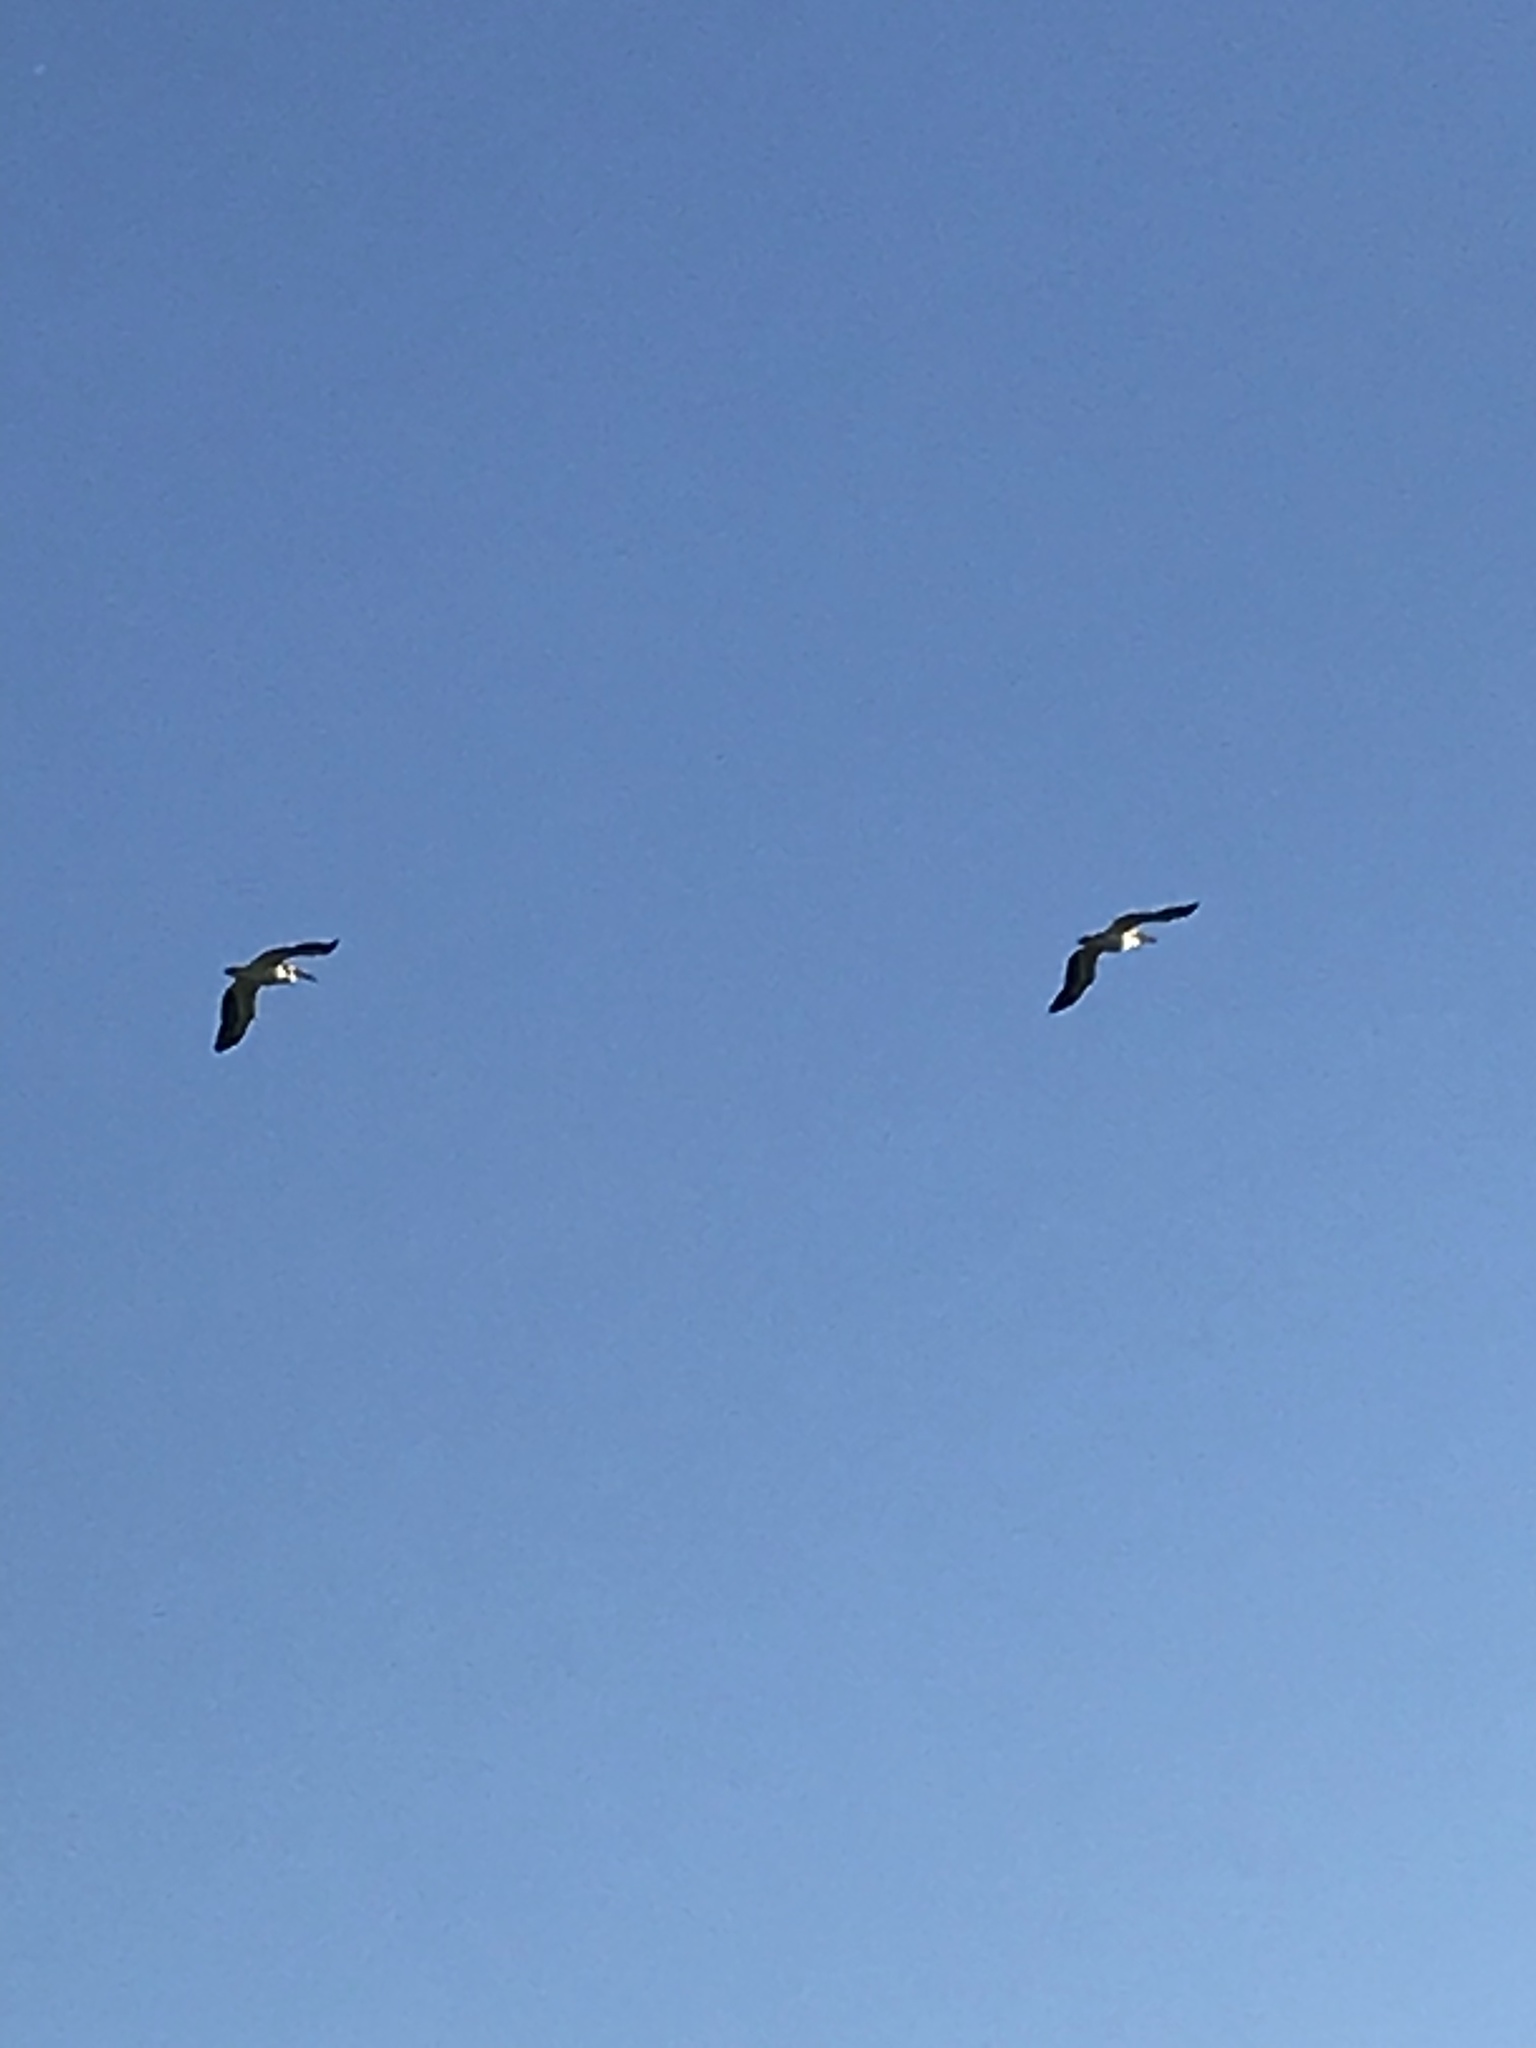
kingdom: Animalia
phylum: Chordata
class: Aves
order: Pelecaniformes
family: Pelecanidae
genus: Pelecanus
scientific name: Pelecanus erythrorhynchos
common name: American white pelican
